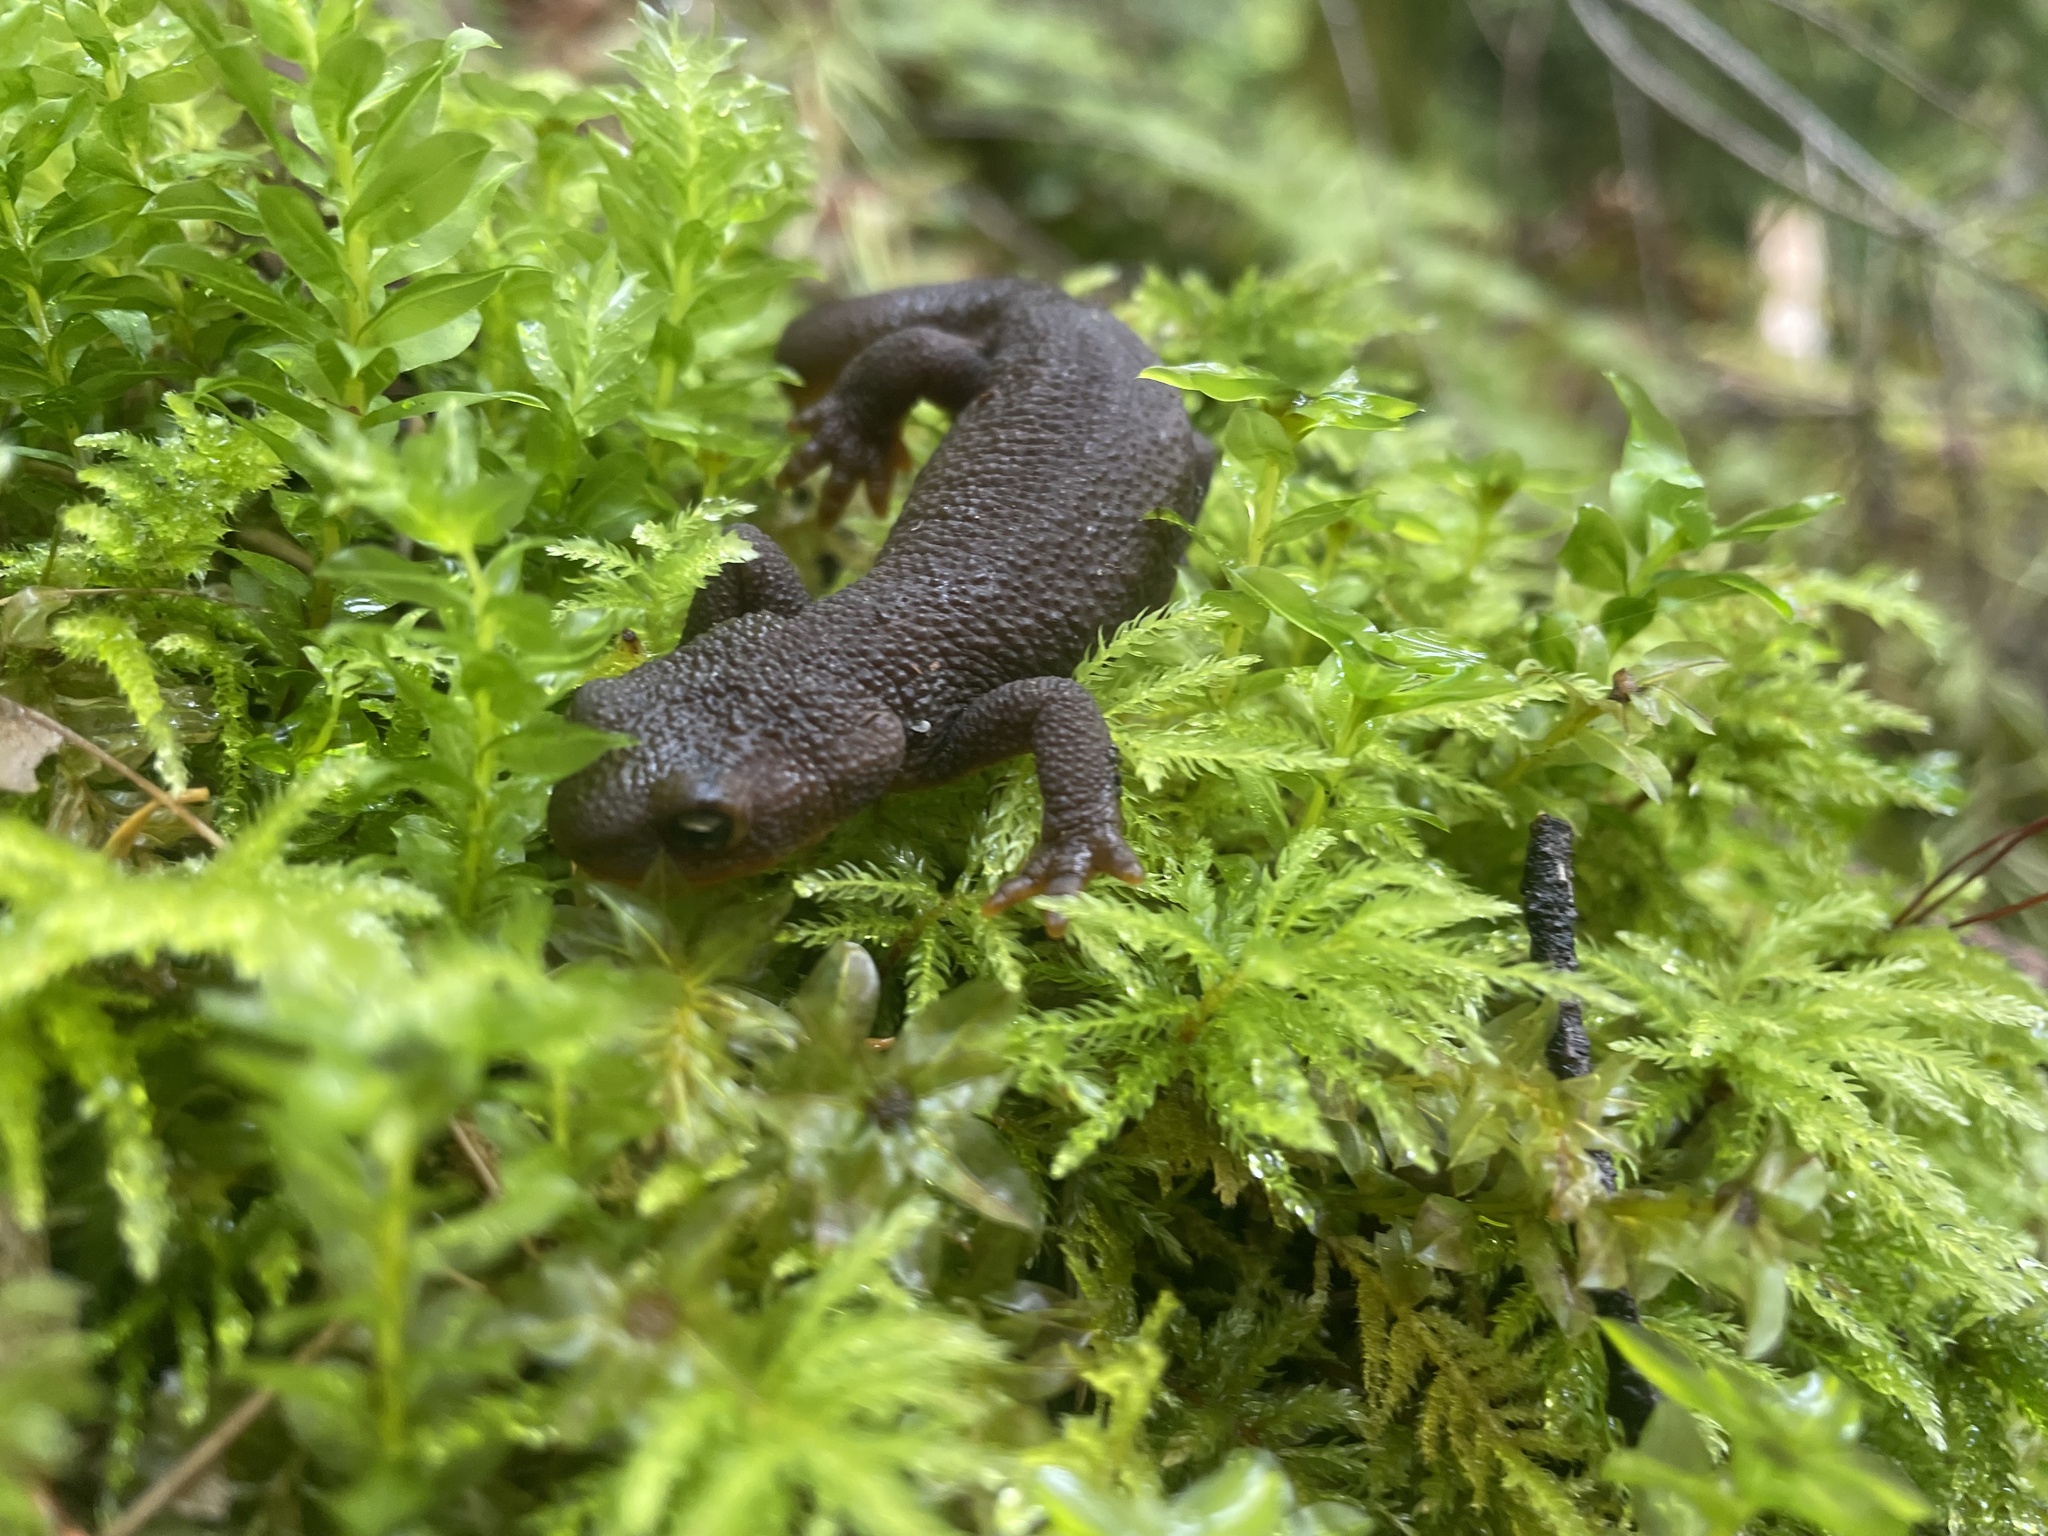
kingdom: Animalia
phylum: Chordata
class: Amphibia
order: Caudata
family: Salamandridae
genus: Taricha
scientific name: Taricha granulosa
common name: Roughskin newt
